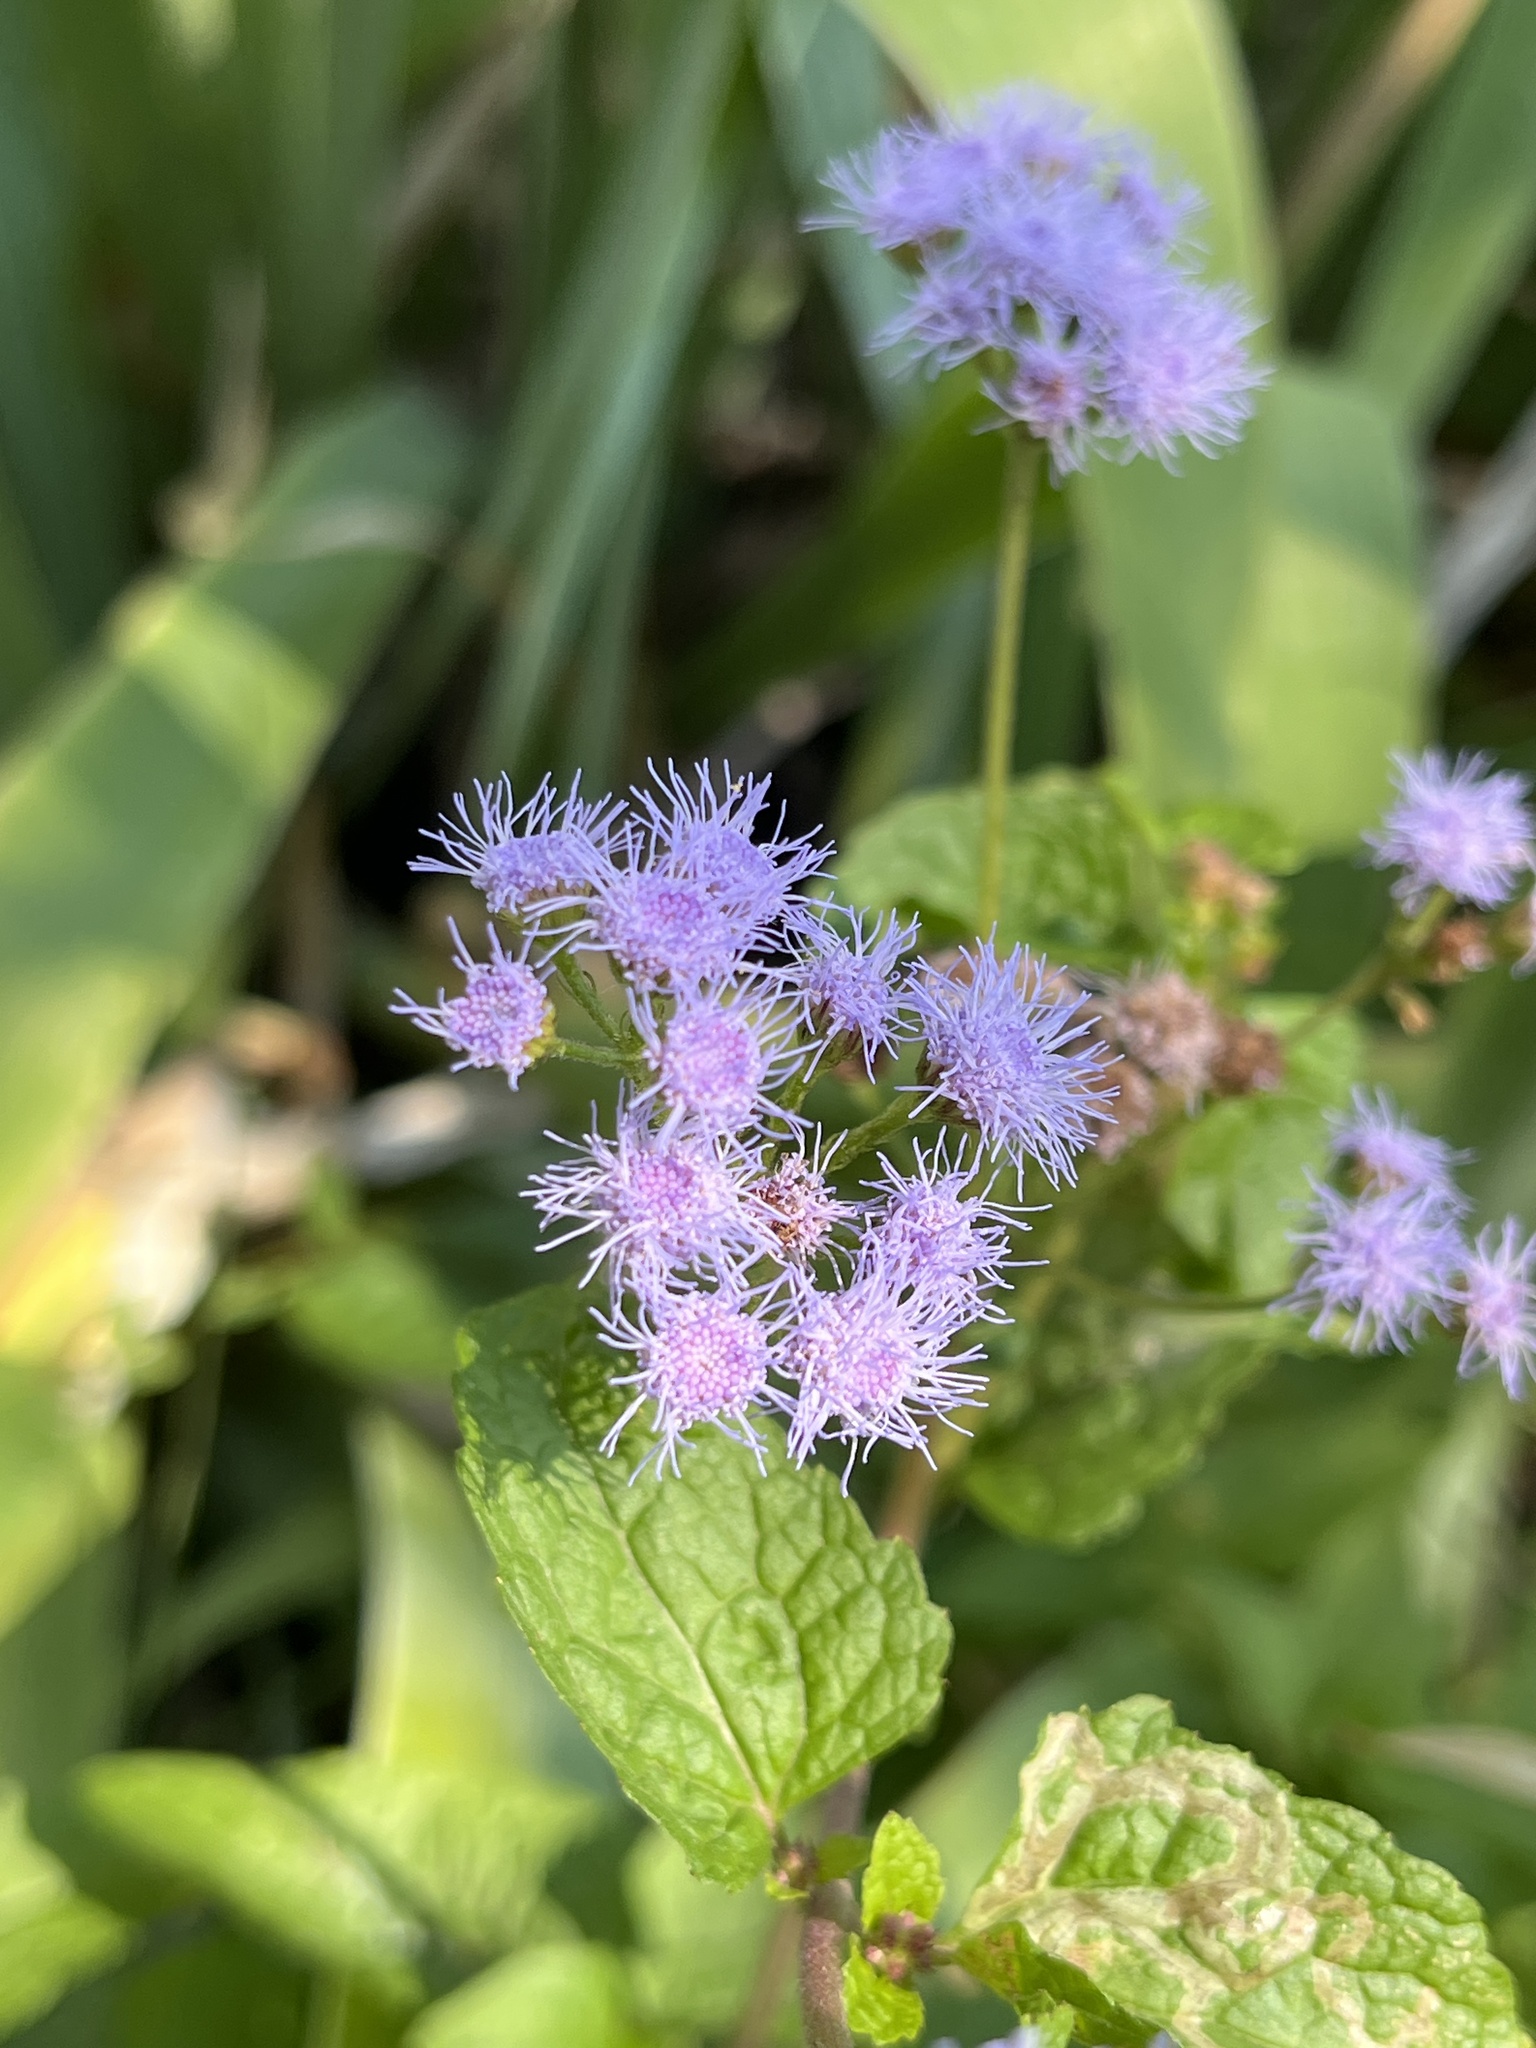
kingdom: Plantae
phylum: Tracheophyta
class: Magnoliopsida
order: Asterales
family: Asteraceae
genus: Conoclinium
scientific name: Conoclinium coelestinum
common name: Blue mistflower
